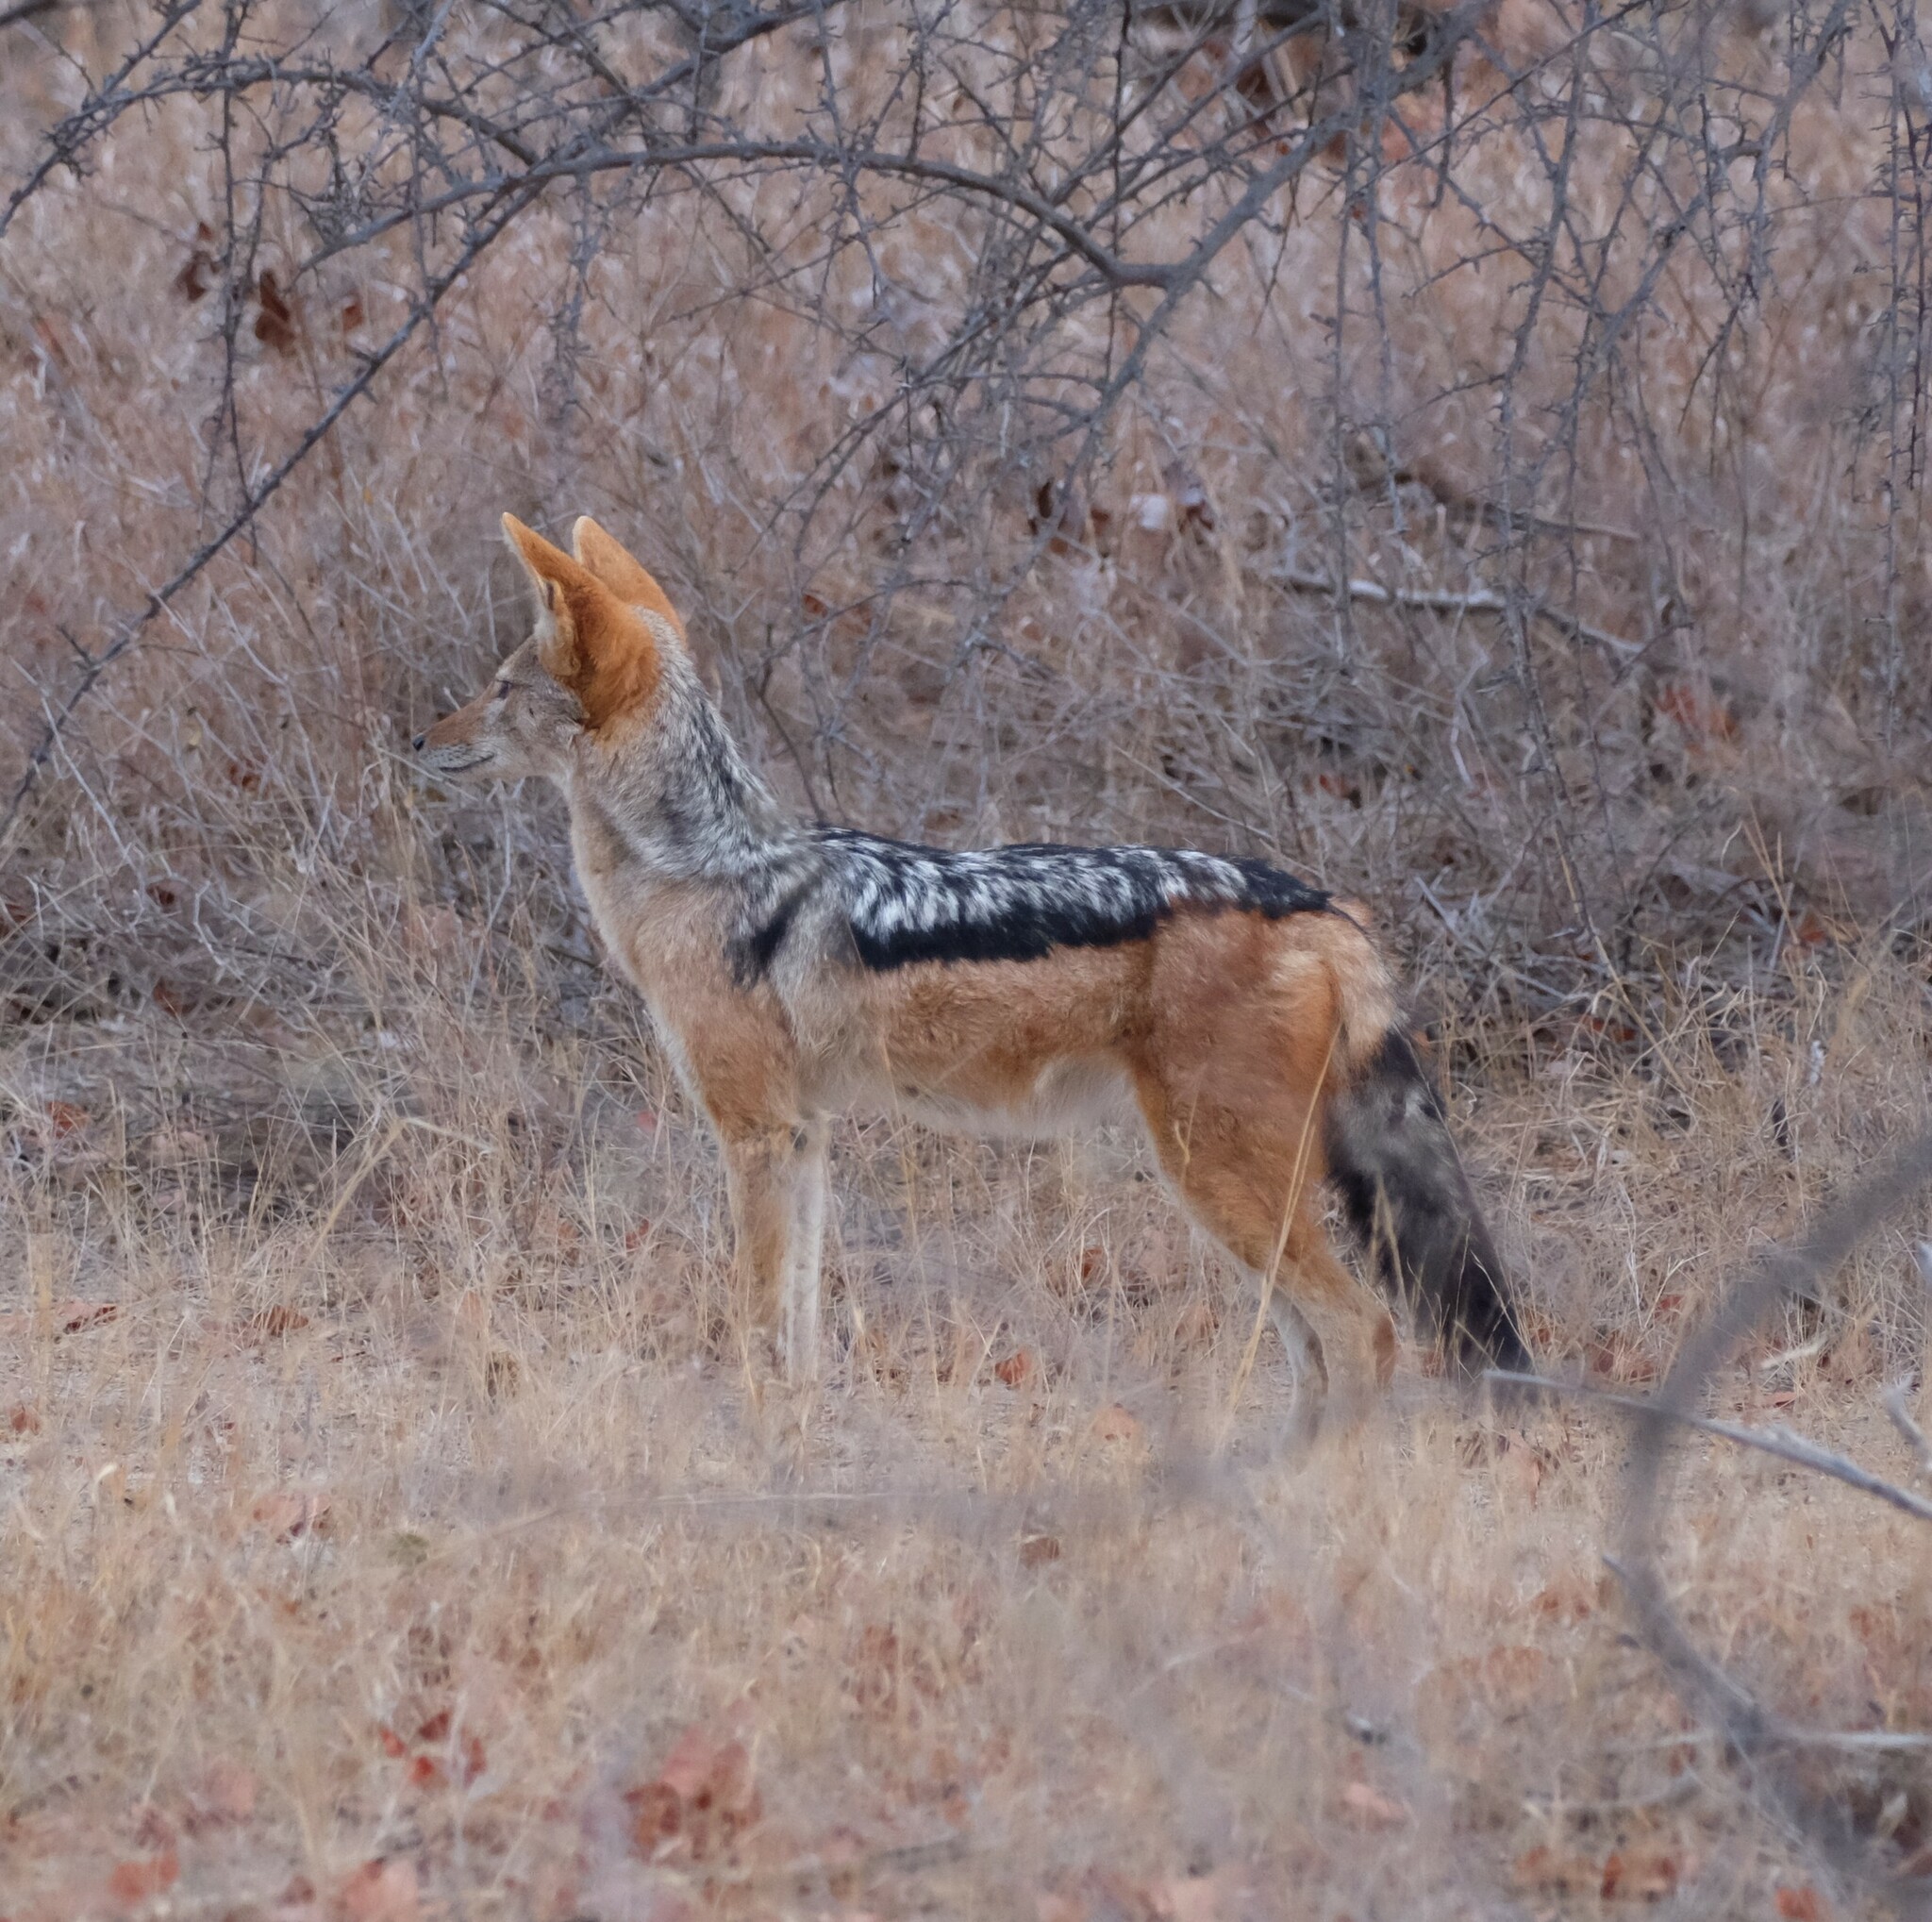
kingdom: Animalia
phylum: Chordata
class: Mammalia
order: Carnivora
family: Canidae
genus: Lupulella
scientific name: Lupulella
